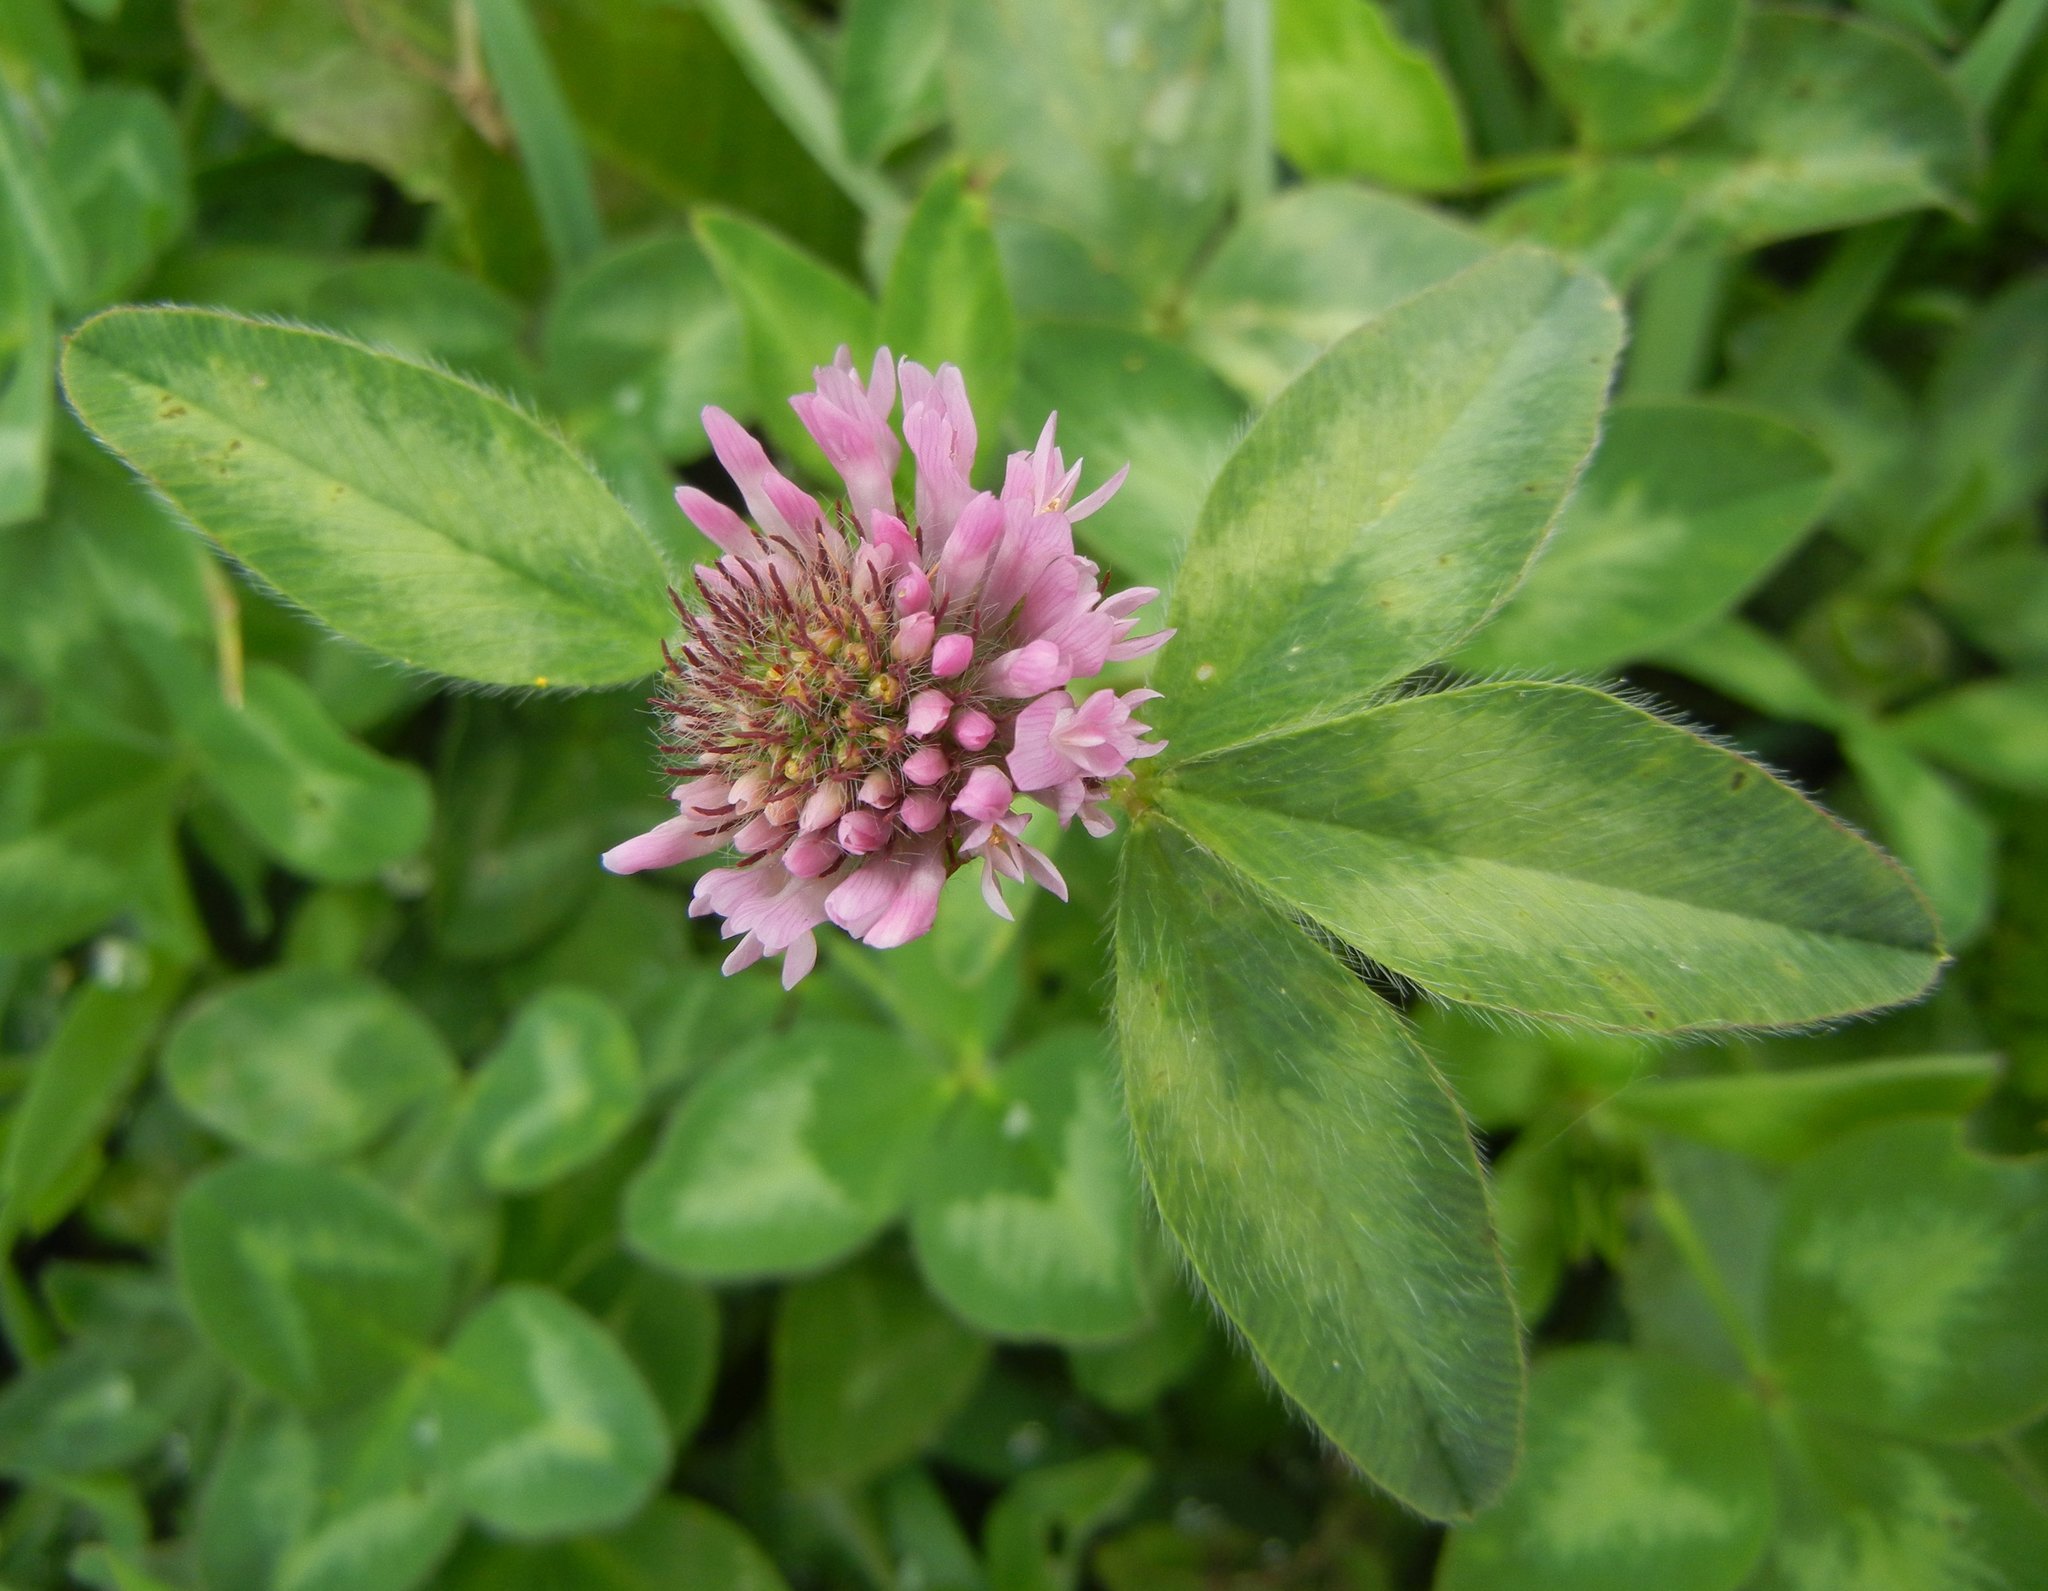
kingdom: Plantae
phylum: Tracheophyta
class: Magnoliopsida
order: Fabales
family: Fabaceae
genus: Trifolium
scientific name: Trifolium pratense
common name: Red clover
